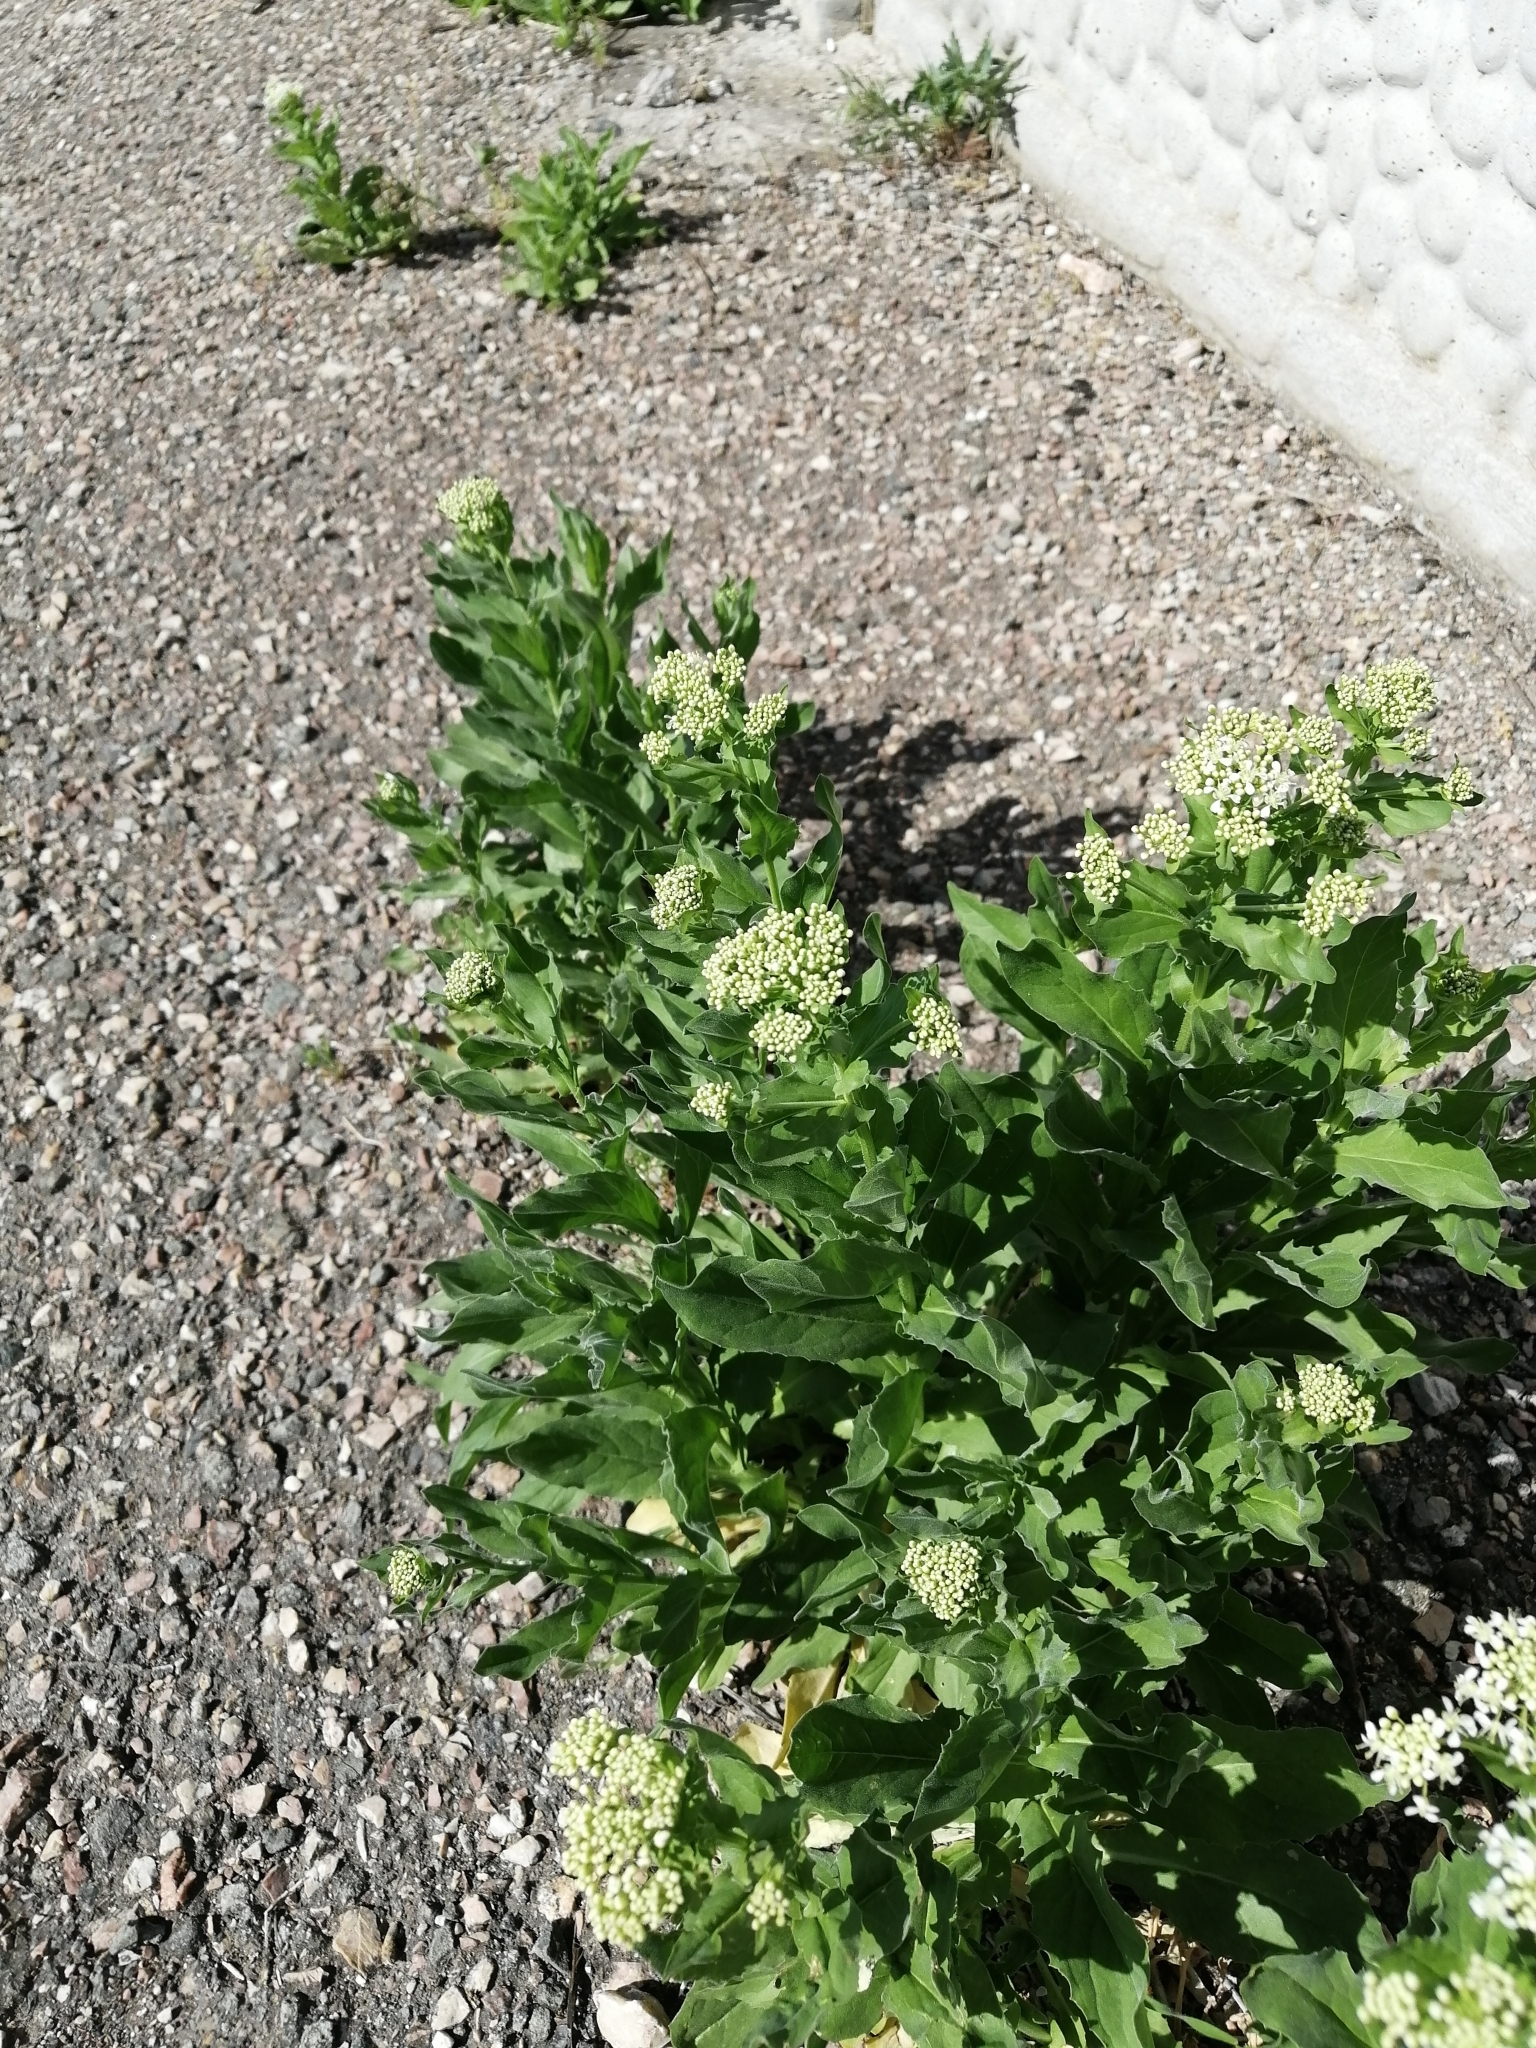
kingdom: Plantae
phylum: Tracheophyta
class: Magnoliopsida
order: Brassicales
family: Brassicaceae
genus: Lepidium
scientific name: Lepidium draba
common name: Hoary cress
